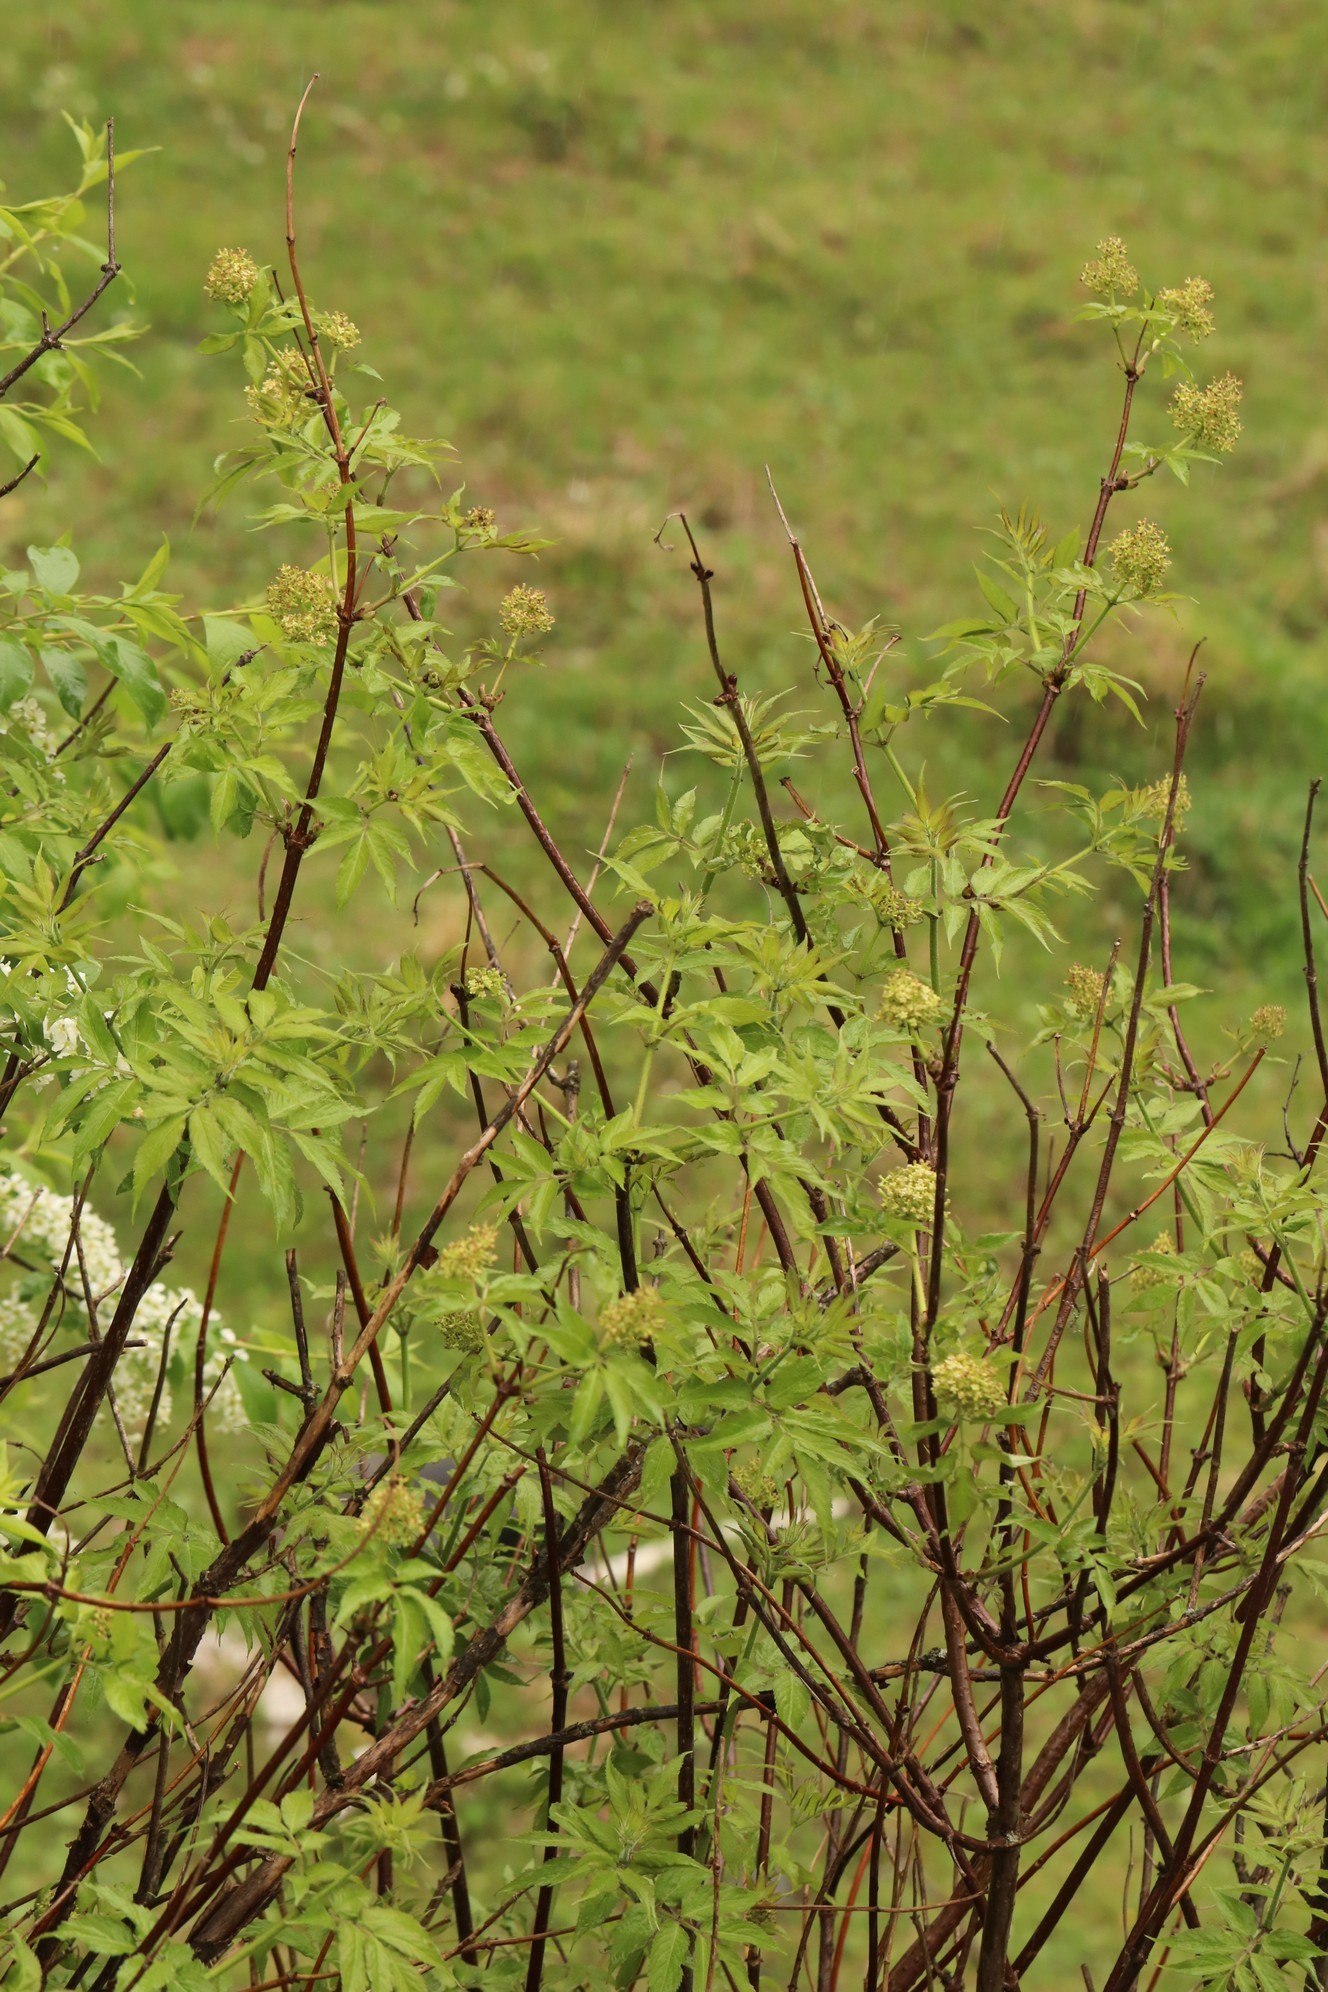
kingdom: Plantae
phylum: Tracheophyta
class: Magnoliopsida
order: Dipsacales
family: Viburnaceae
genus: Sambucus
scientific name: Sambucus sibirica
